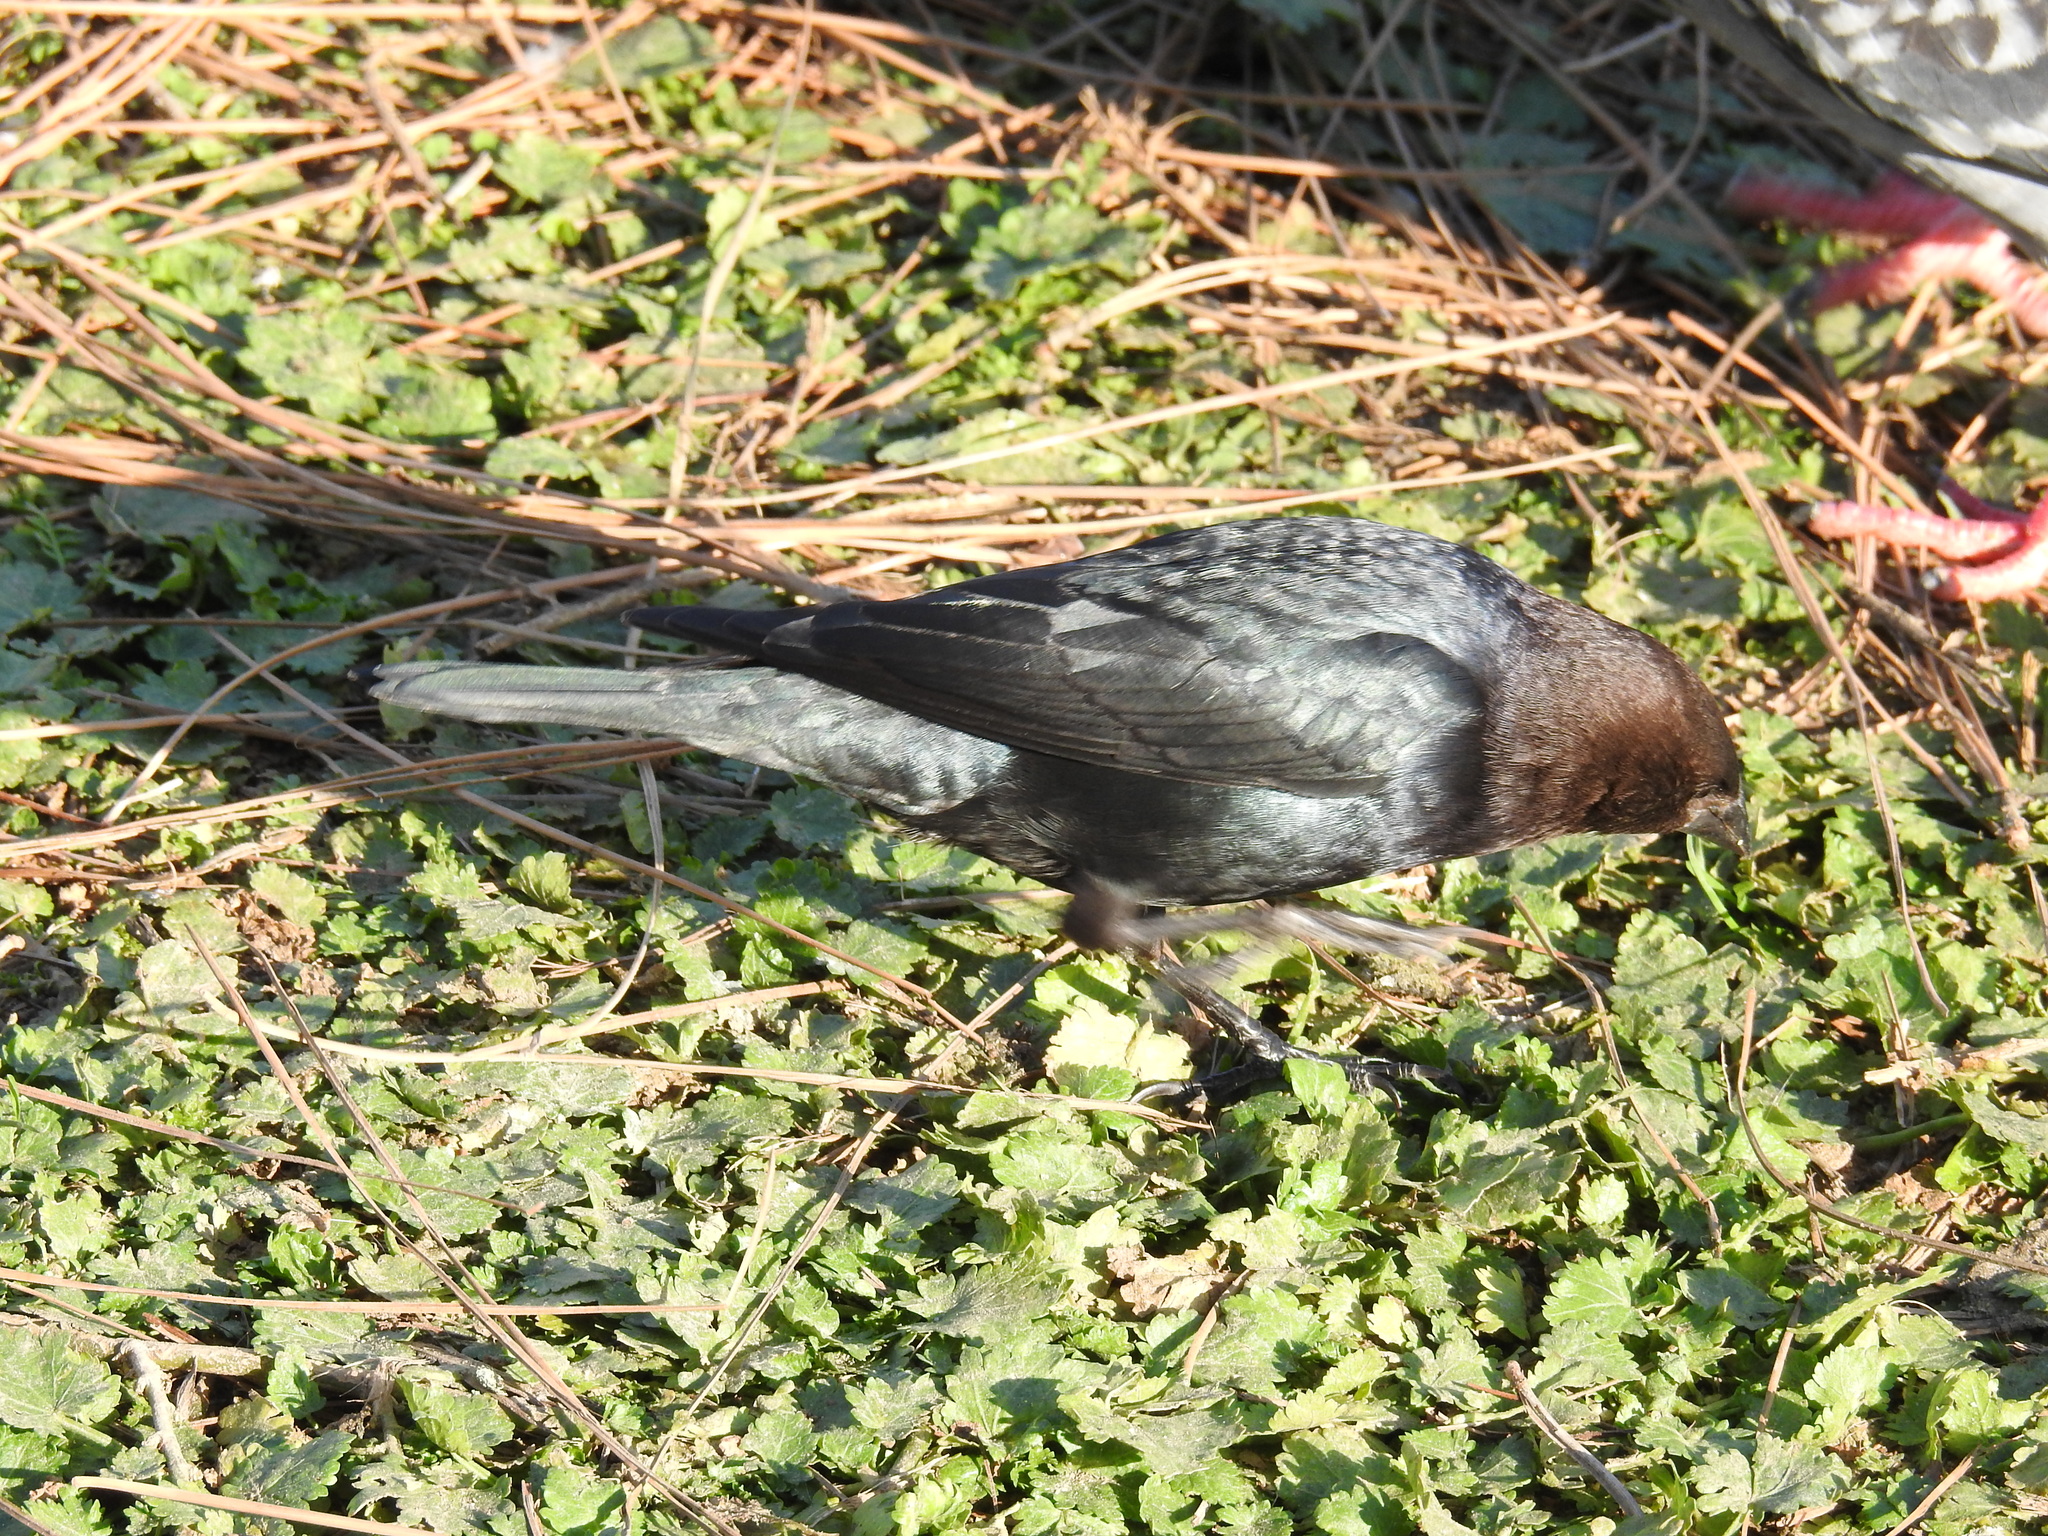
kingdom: Animalia
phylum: Chordata
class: Aves
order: Passeriformes
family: Icteridae
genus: Molothrus
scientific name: Molothrus ater
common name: Brown-headed cowbird
